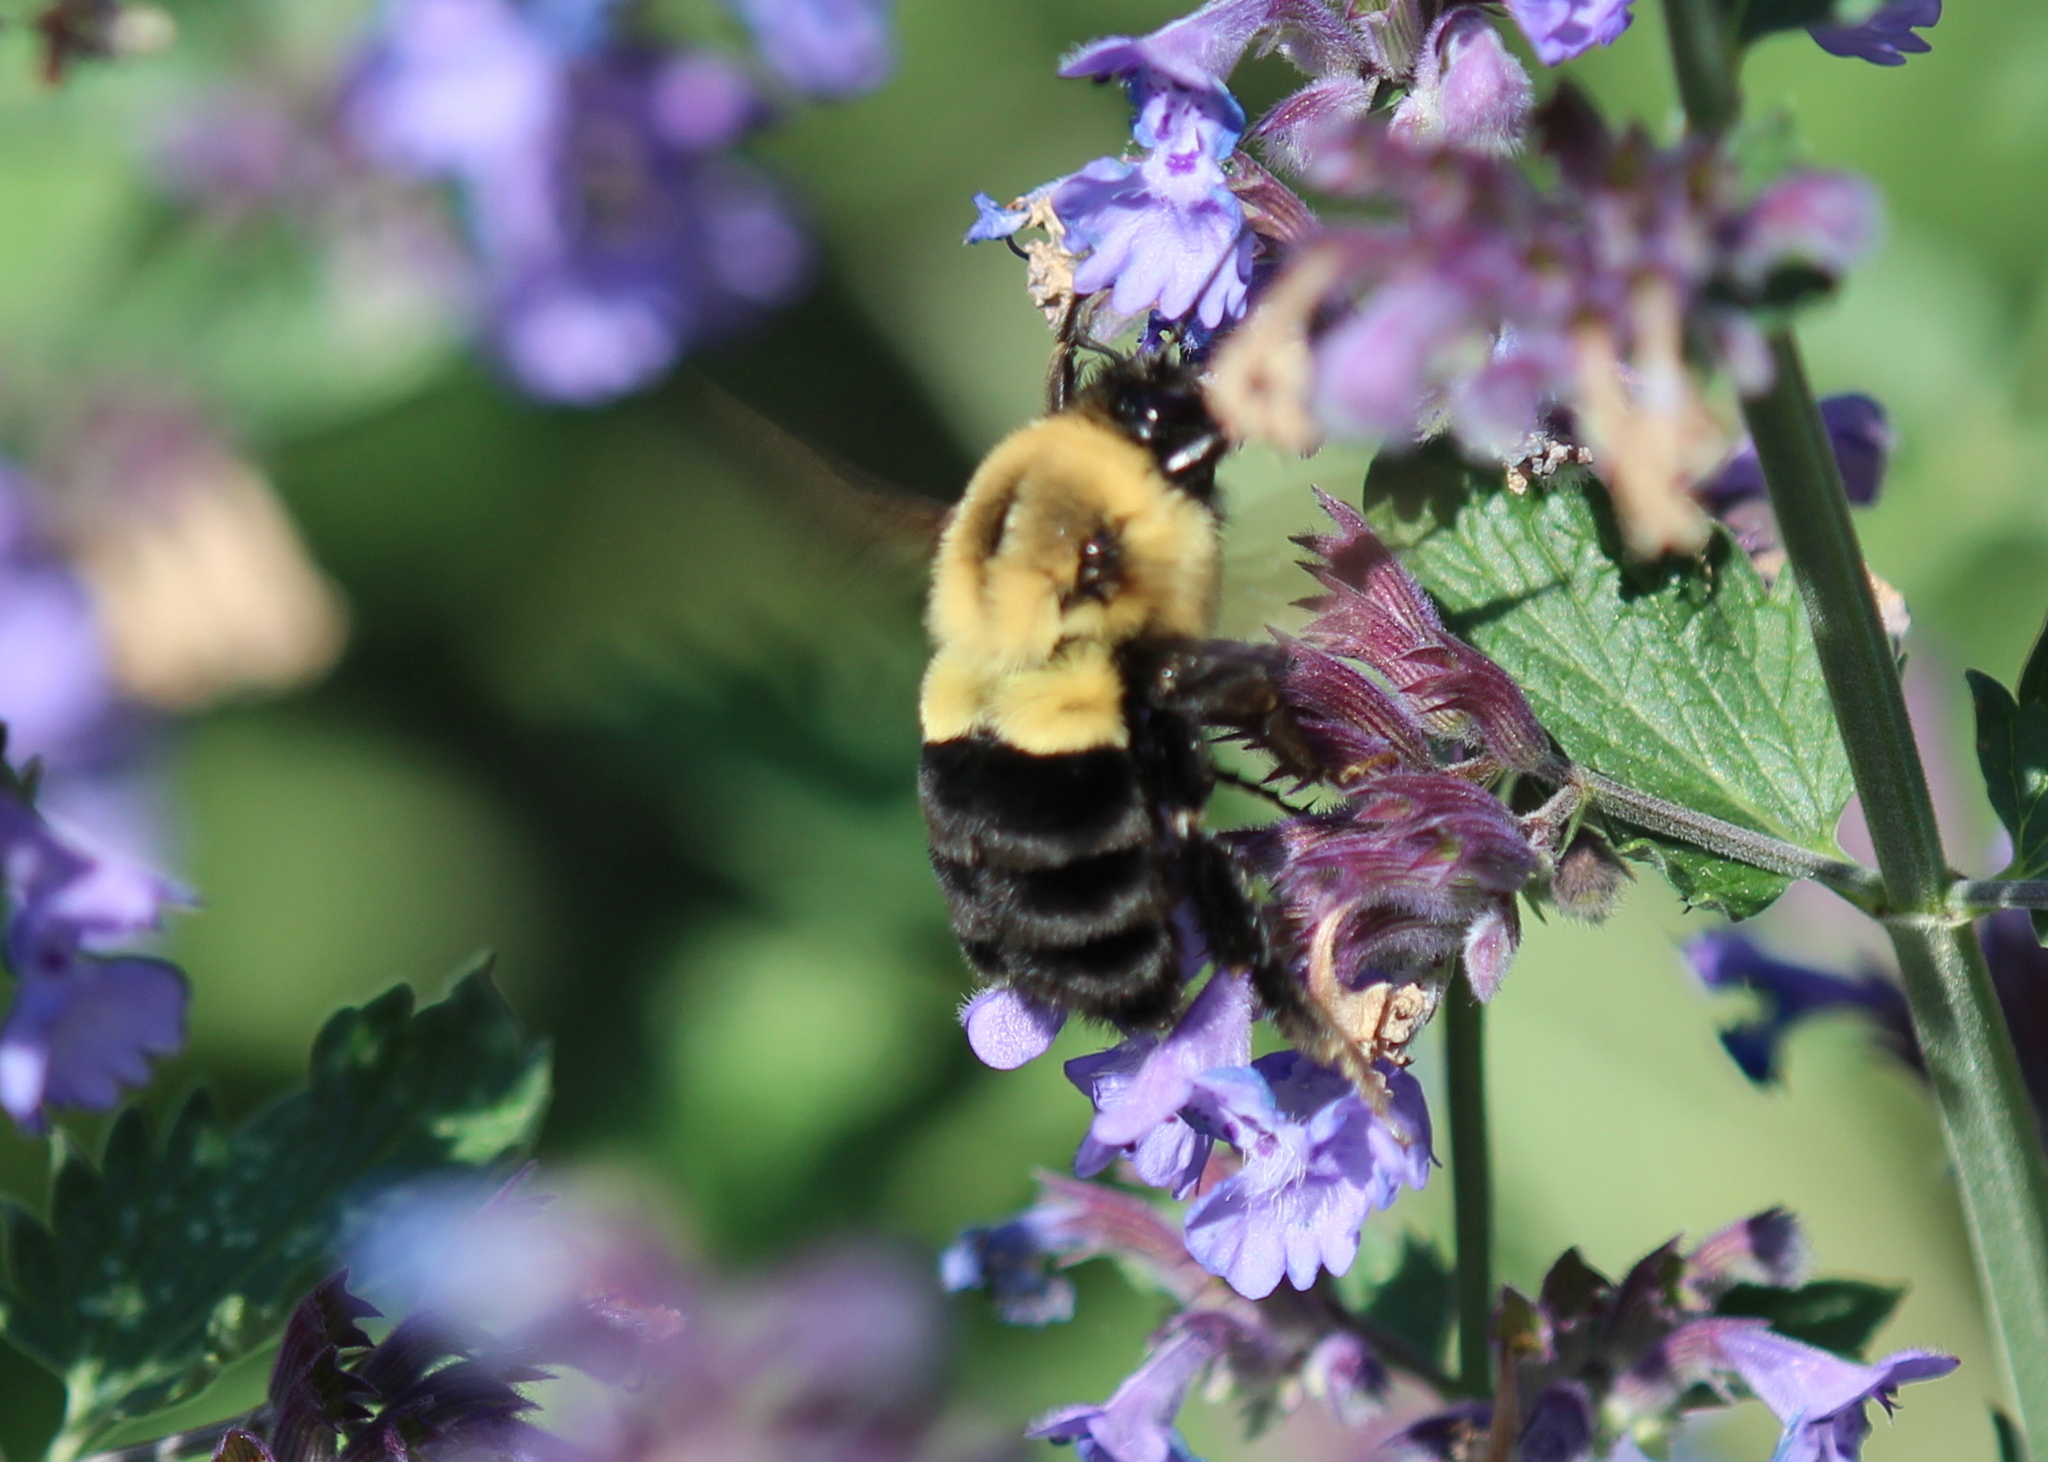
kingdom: Animalia
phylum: Arthropoda
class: Insecta
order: Hymenoptera
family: Apidae
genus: Bombus
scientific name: Bombus impatiens
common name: Common eastern bumble bee
